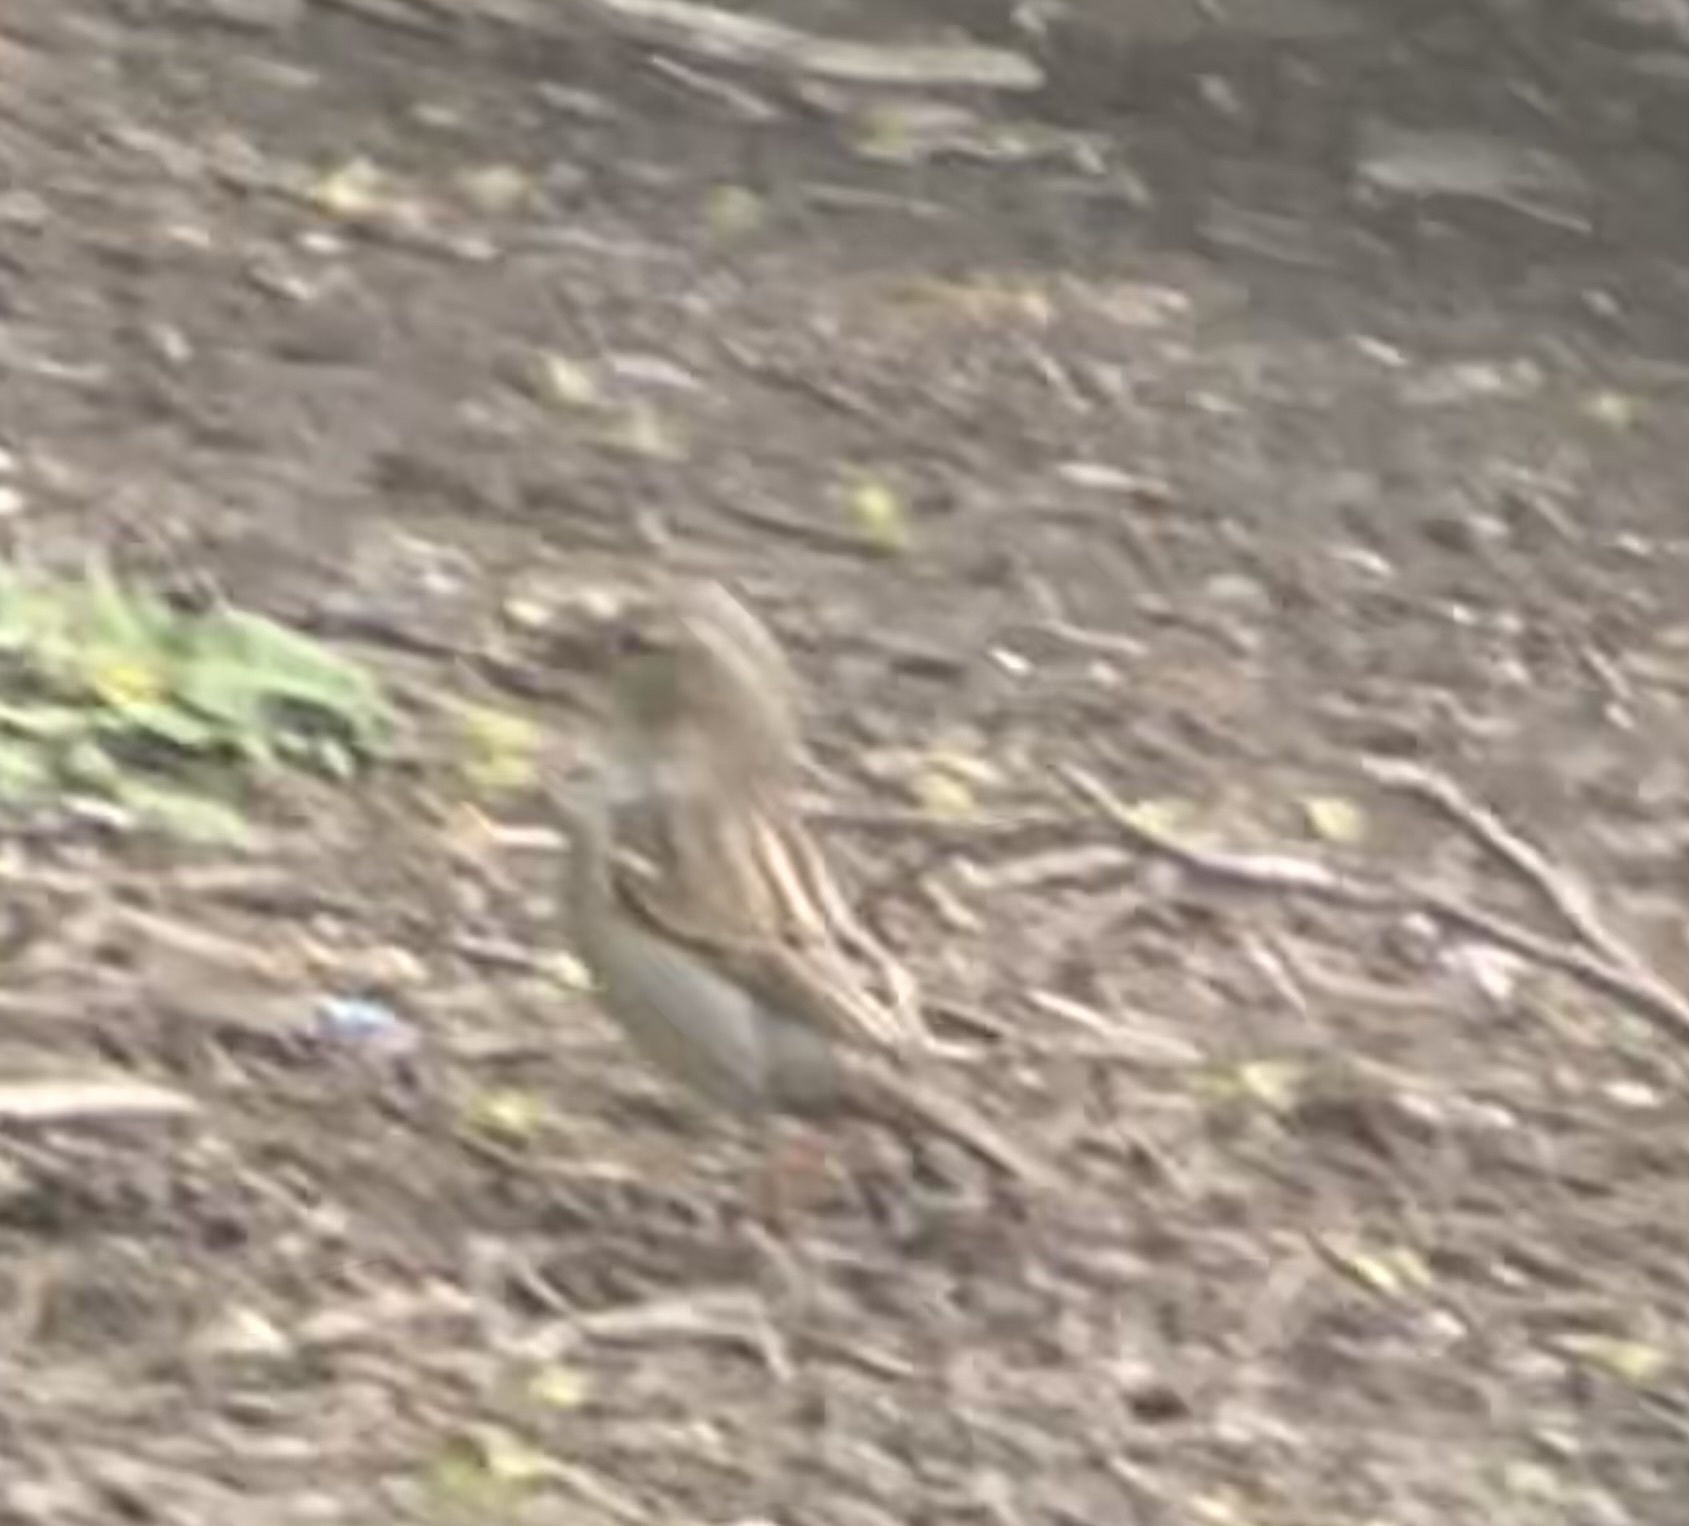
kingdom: Animalia
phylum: Chordata
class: Aves
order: Passeriformes
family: Passeridae
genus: Passer
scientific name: Passer domesticus
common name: House sparrow
